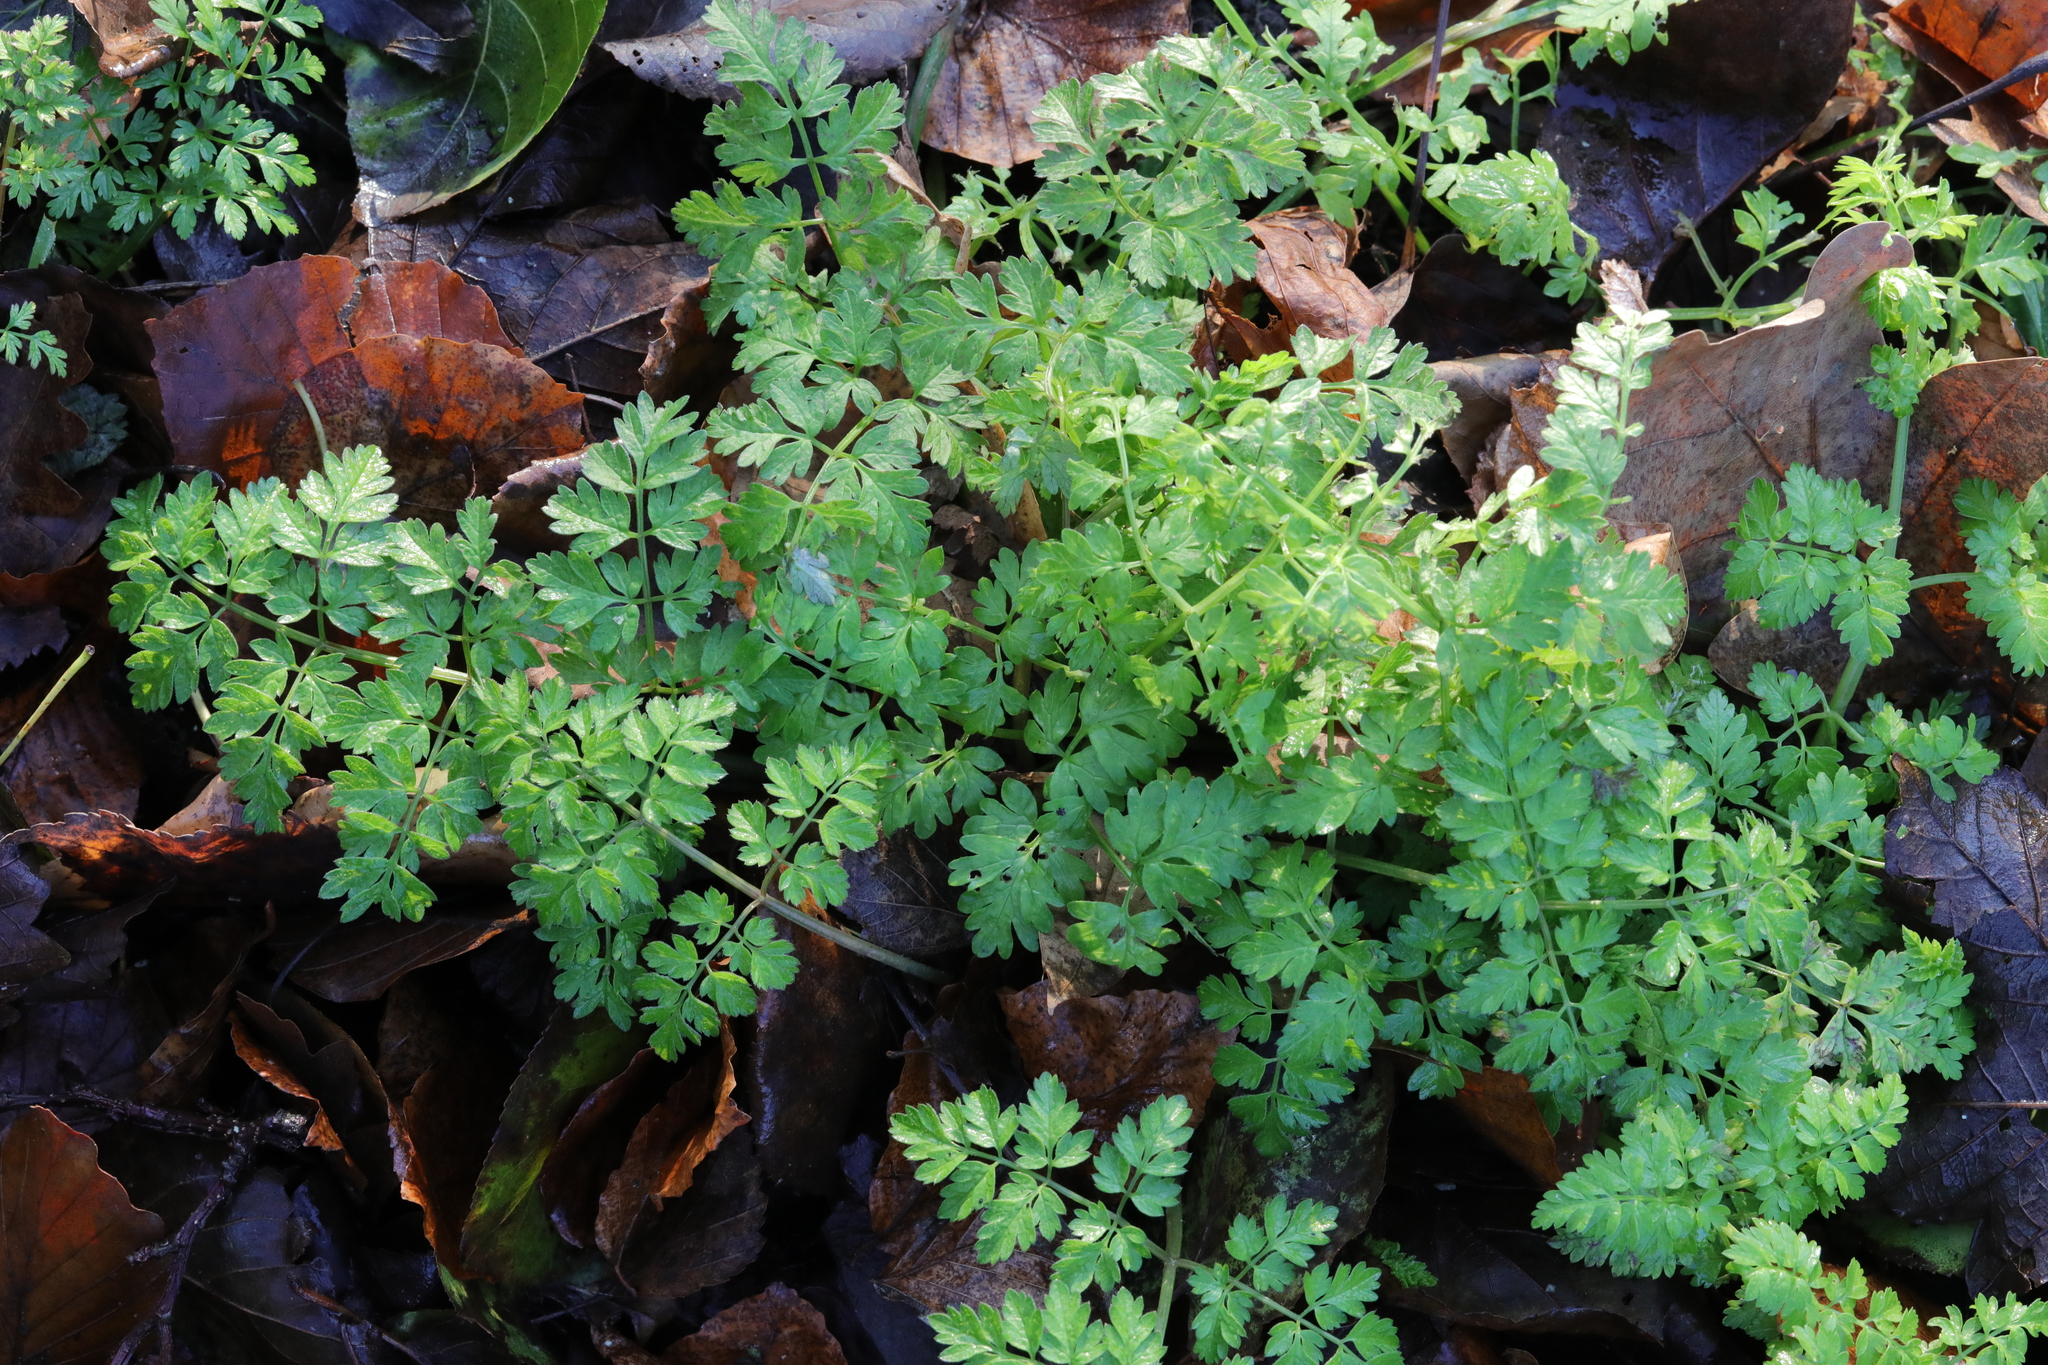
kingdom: Plantae
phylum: Tracheophyta
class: Magnoliopsida
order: Apiales
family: Apiaceae
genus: Anthriscus
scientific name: Anthriscus sylvestris
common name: Cow parsley
